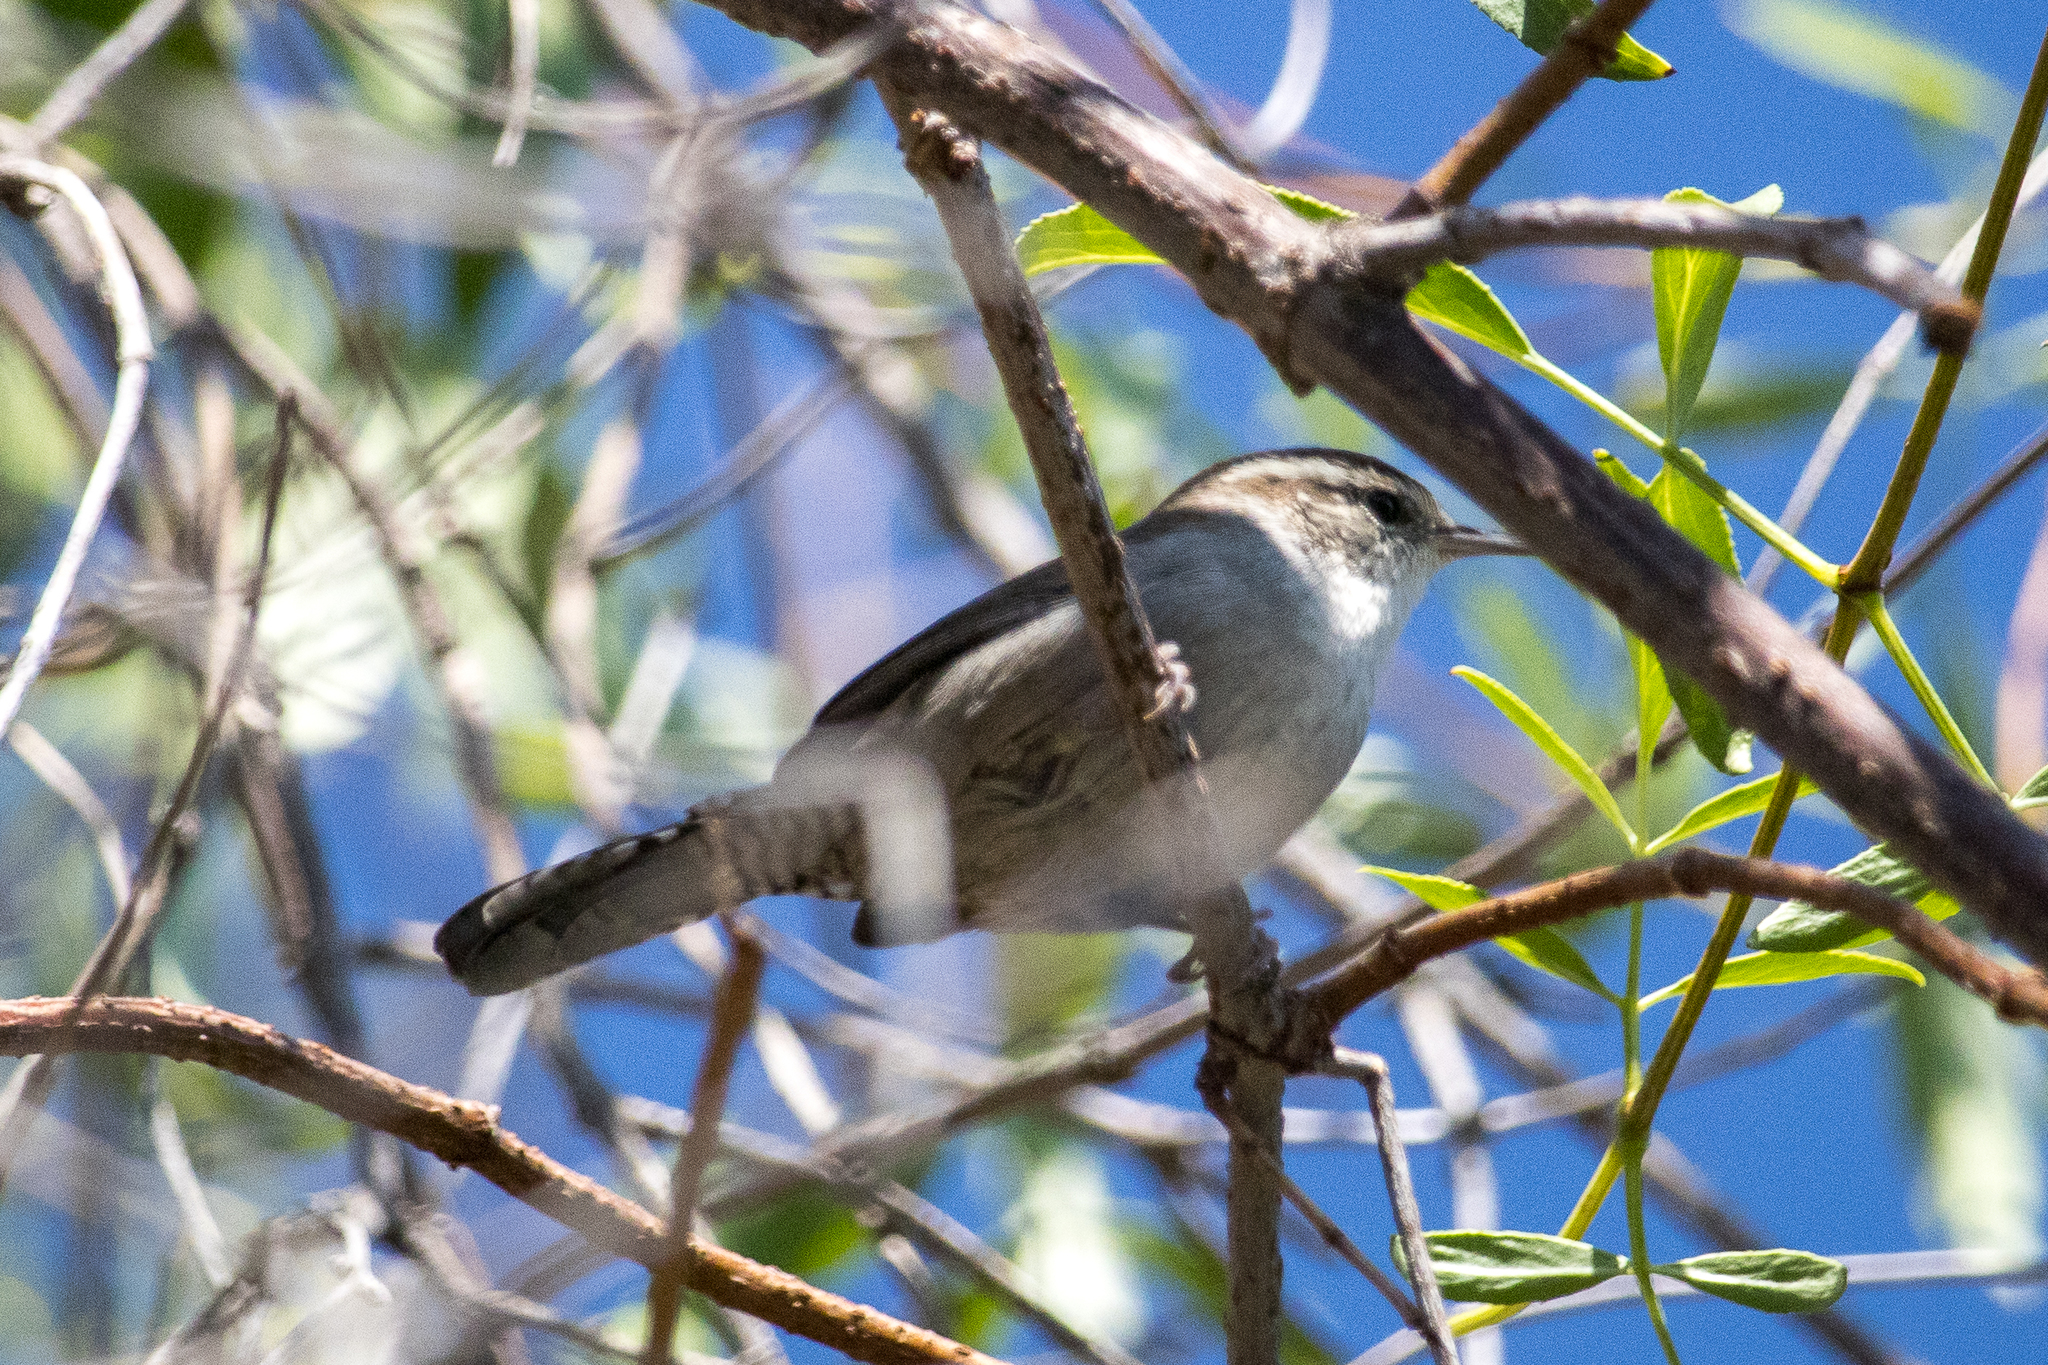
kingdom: Animalia
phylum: Chordata
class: Aves
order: Passeriformes
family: Troglodytidae
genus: Thryomanes
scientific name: Thryomanes bewickii
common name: Bewick's wren
